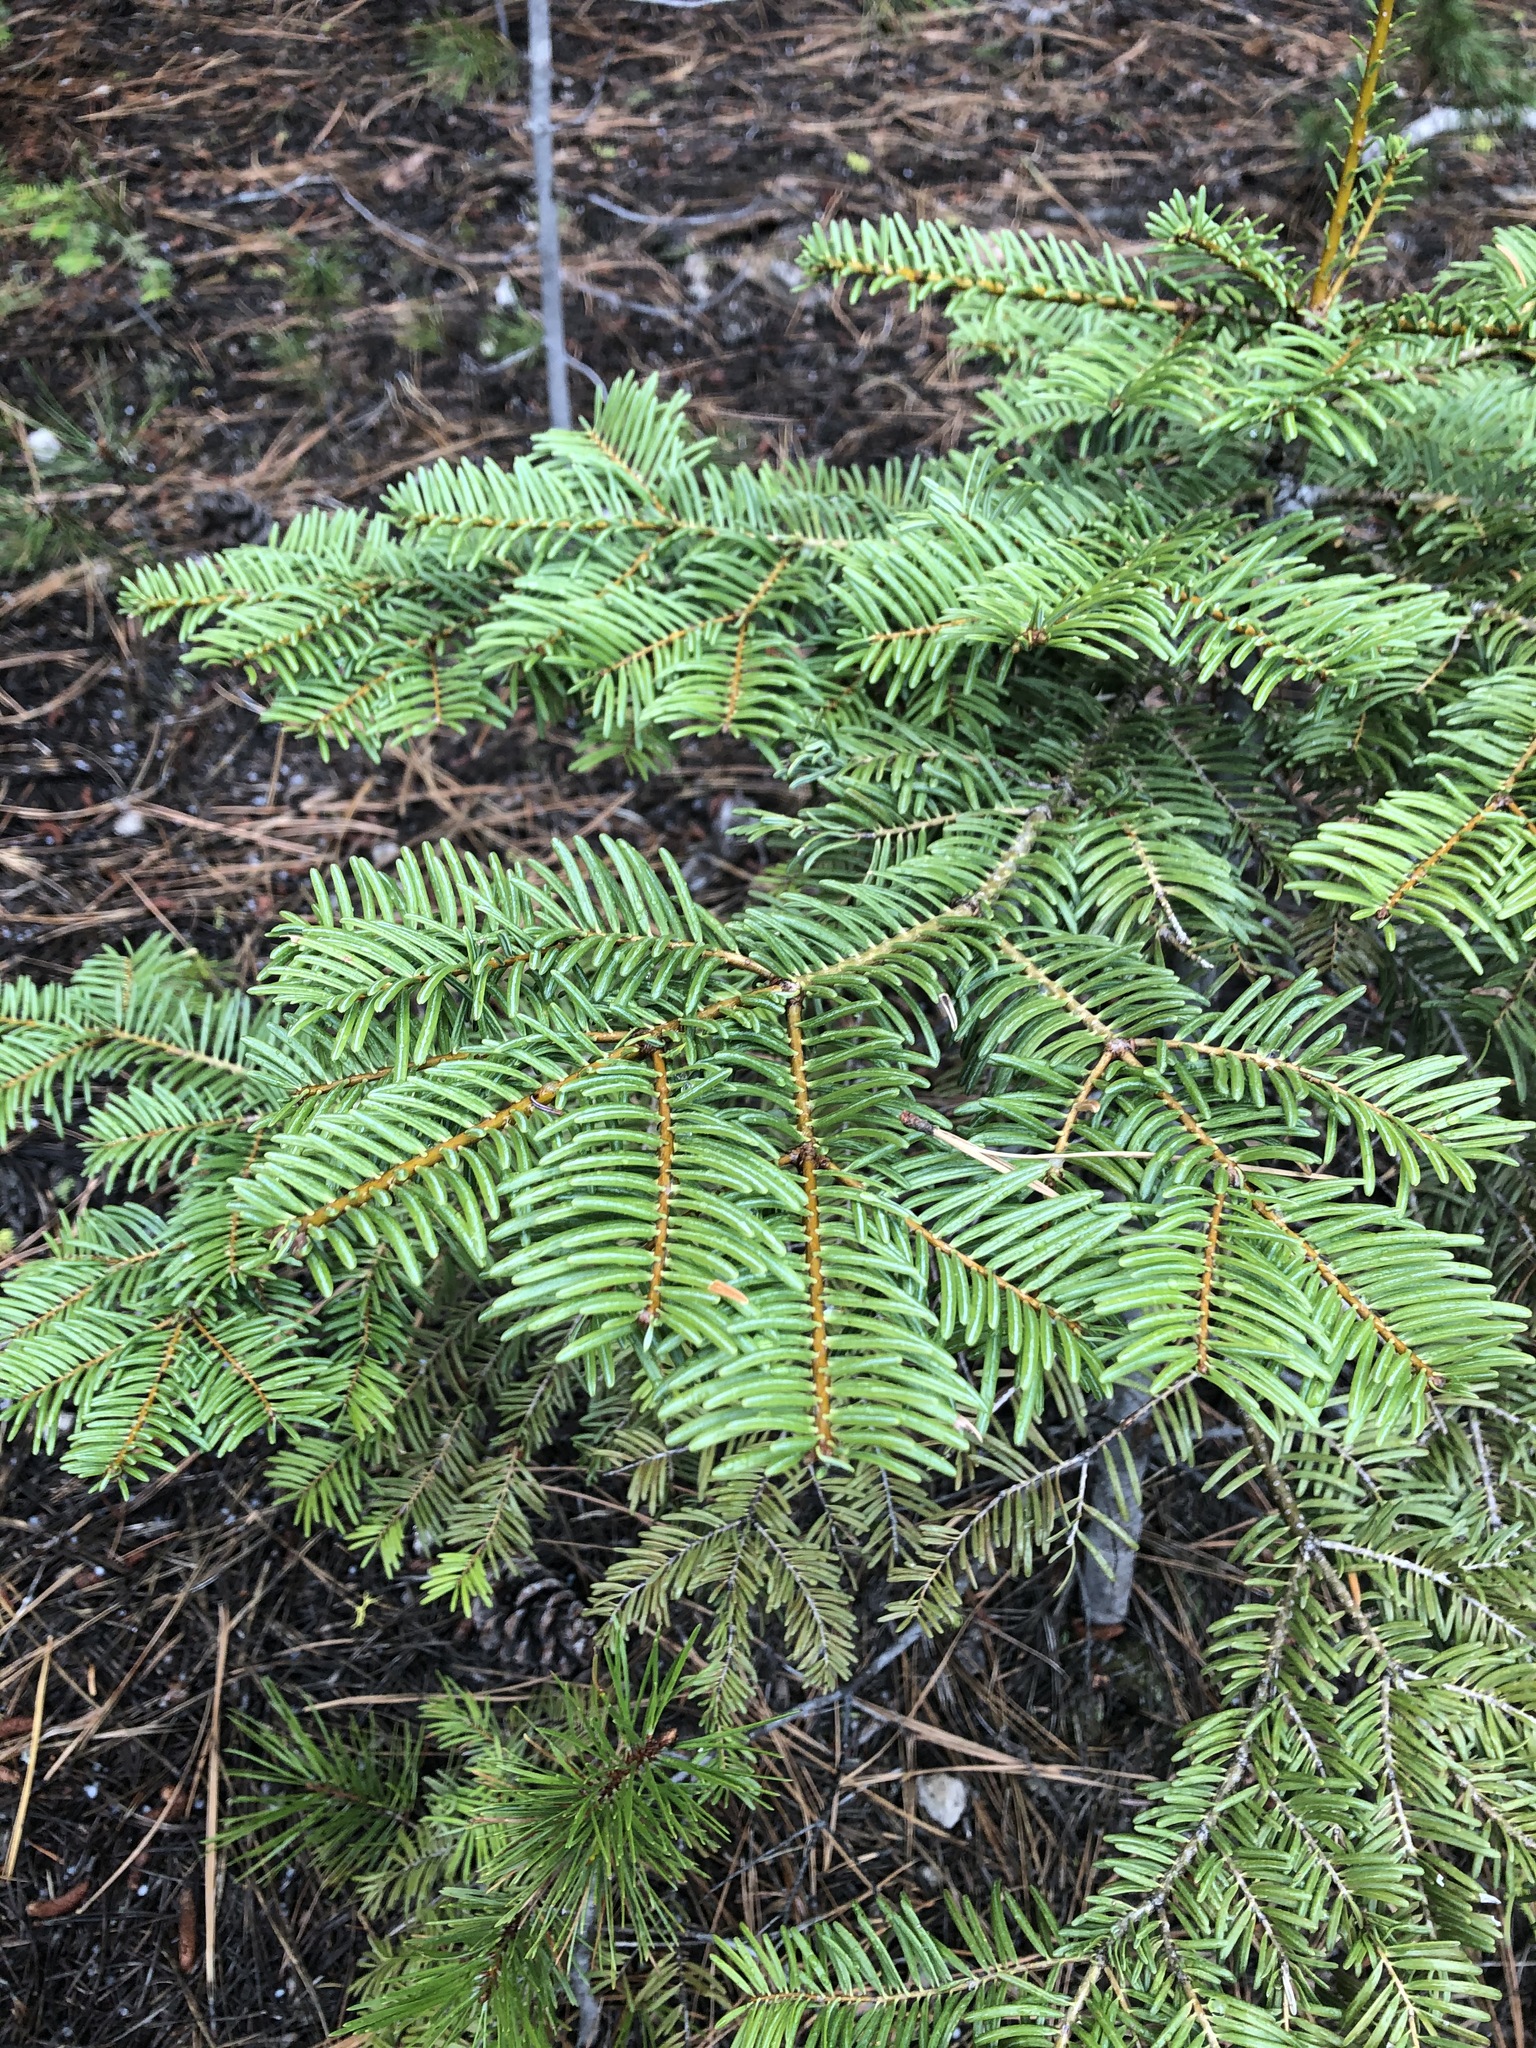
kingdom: Plantae
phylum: Tracheophyta
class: Pinopsida
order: Pinales
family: Pinaceae
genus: Abies
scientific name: Abies concolor
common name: Colorado fir
